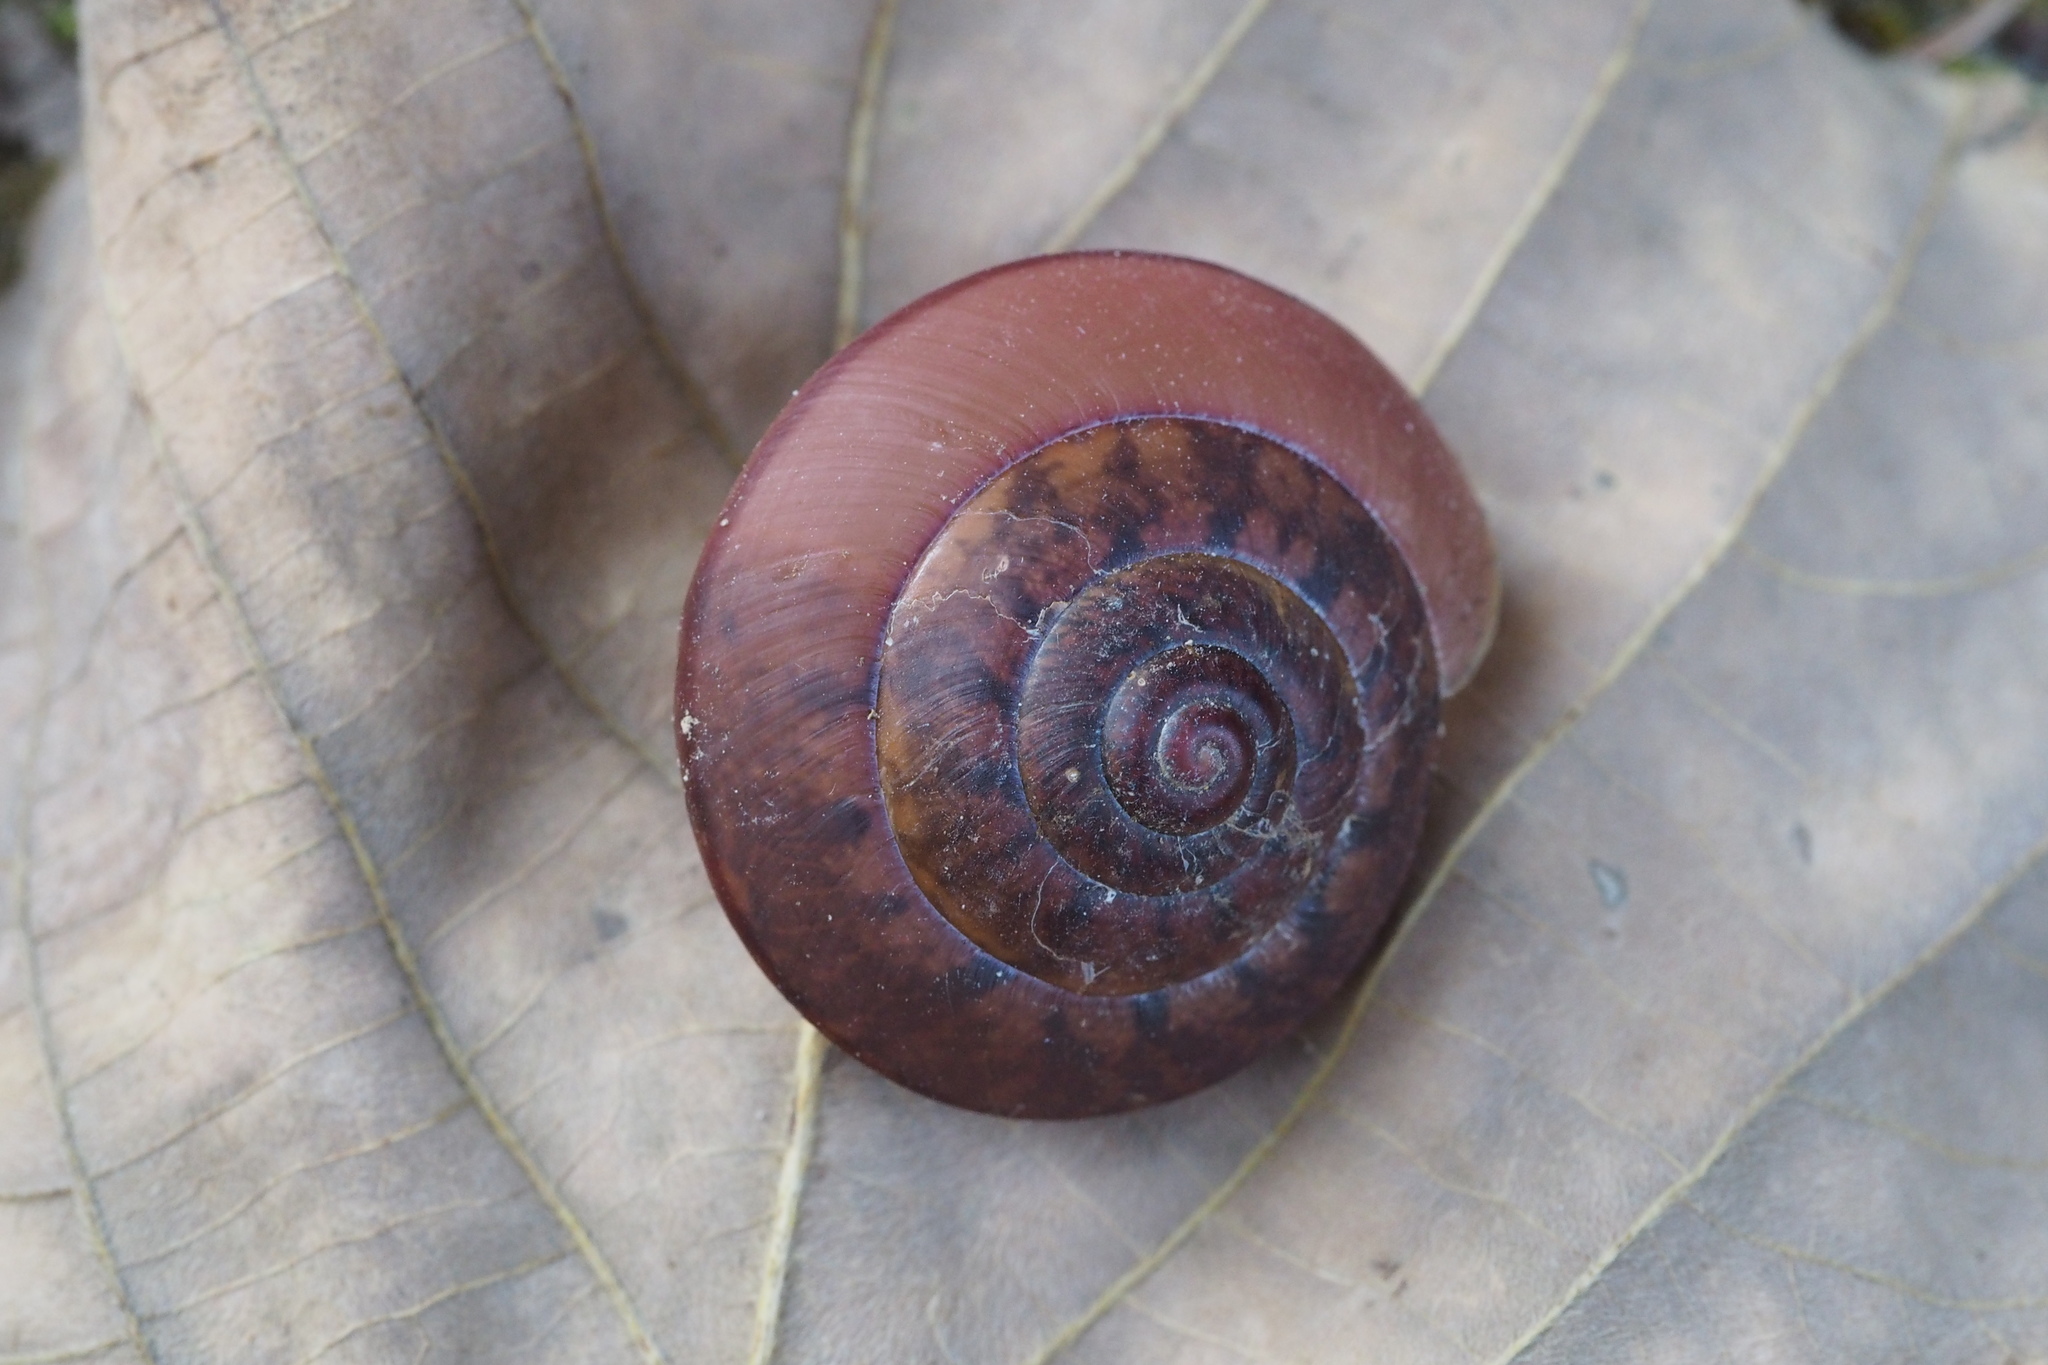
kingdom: Animalia
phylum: Mollusca
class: Gastropoda
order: Stylommatophora
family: Camaenidae
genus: Satsuma
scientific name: Satsuma myomphala
